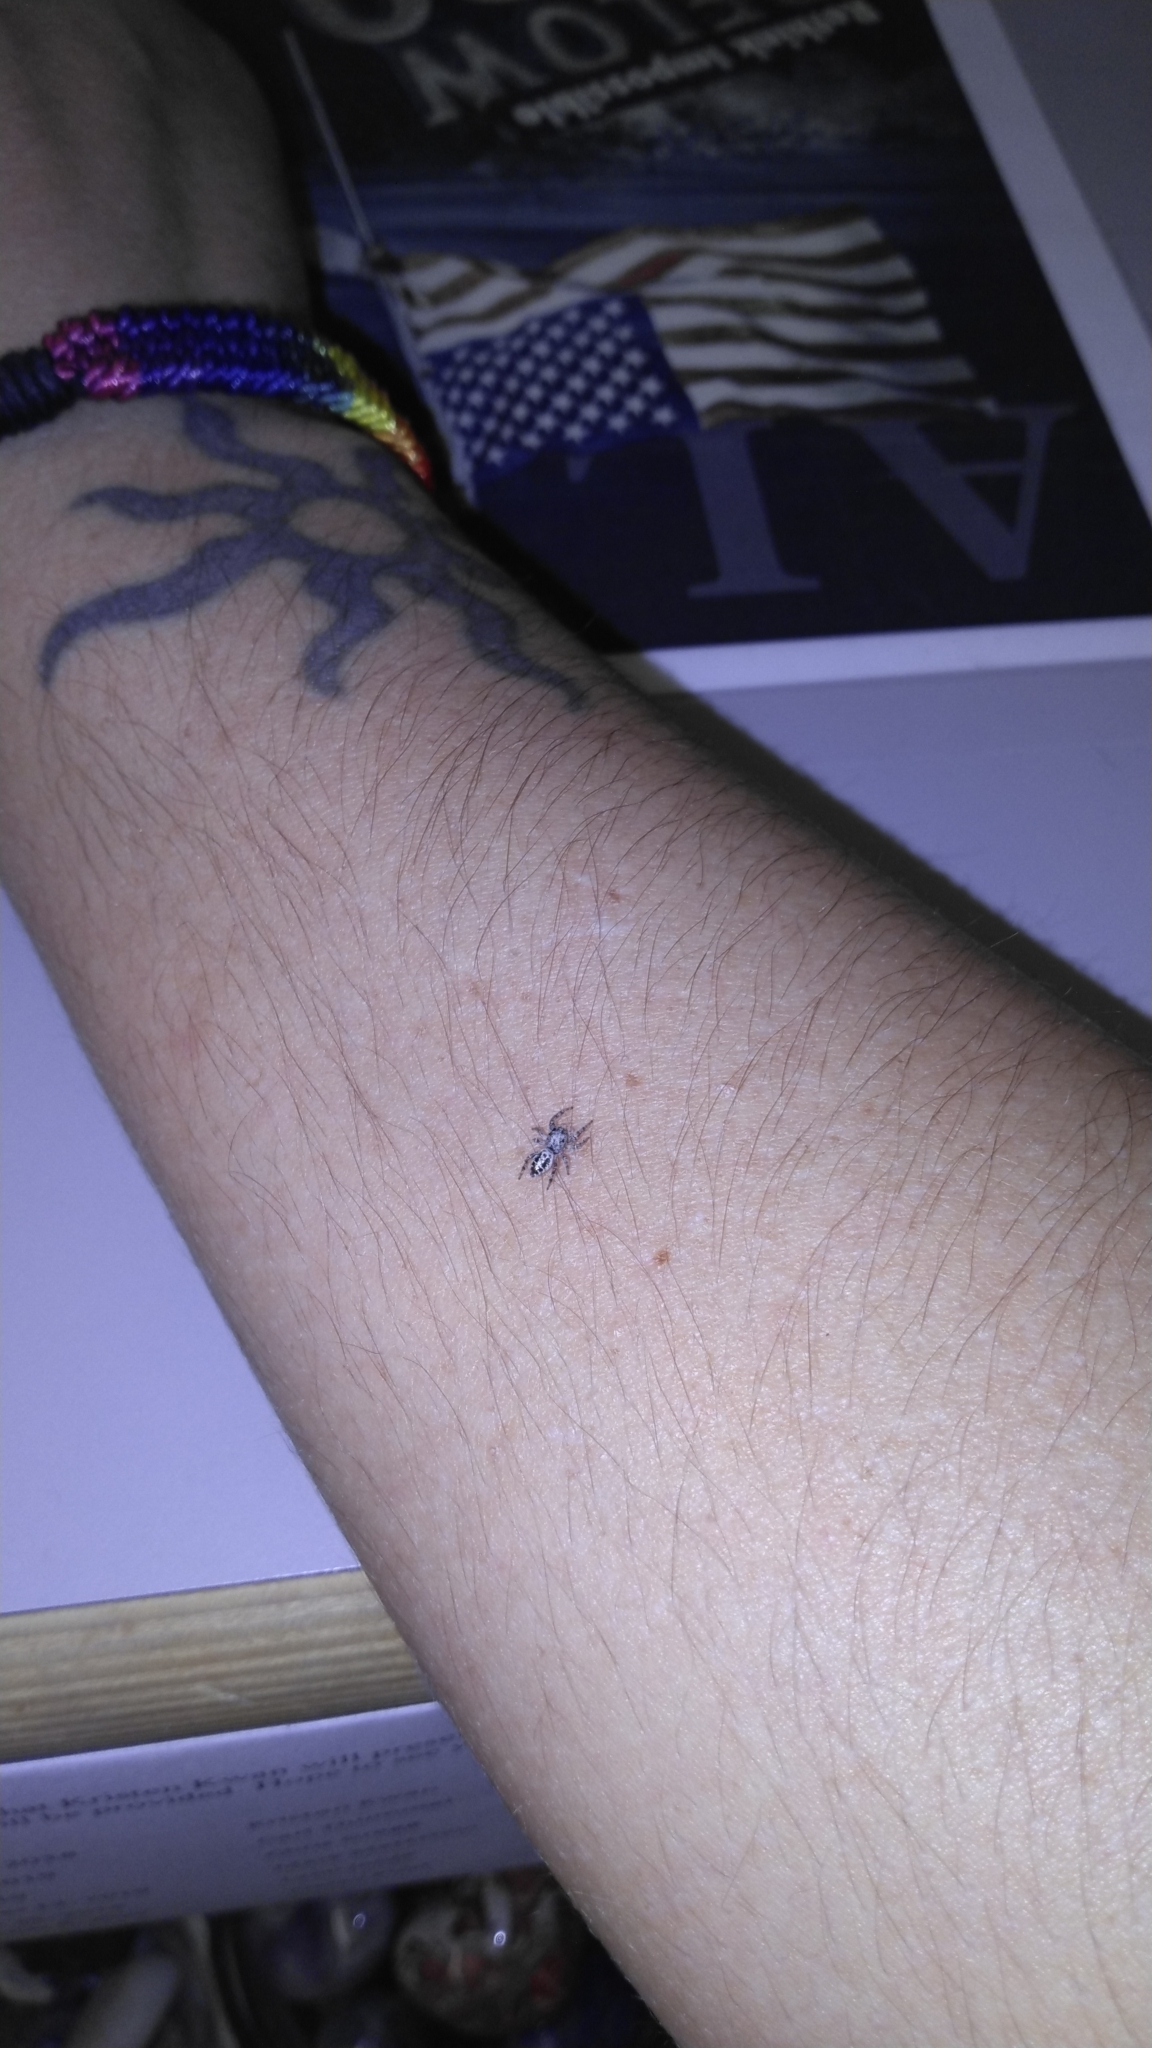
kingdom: Animalia
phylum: Arthropoda
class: Arachnida
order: Araneae
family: Salticidae
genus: Pelegrina
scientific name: Pelegrina aeneola
